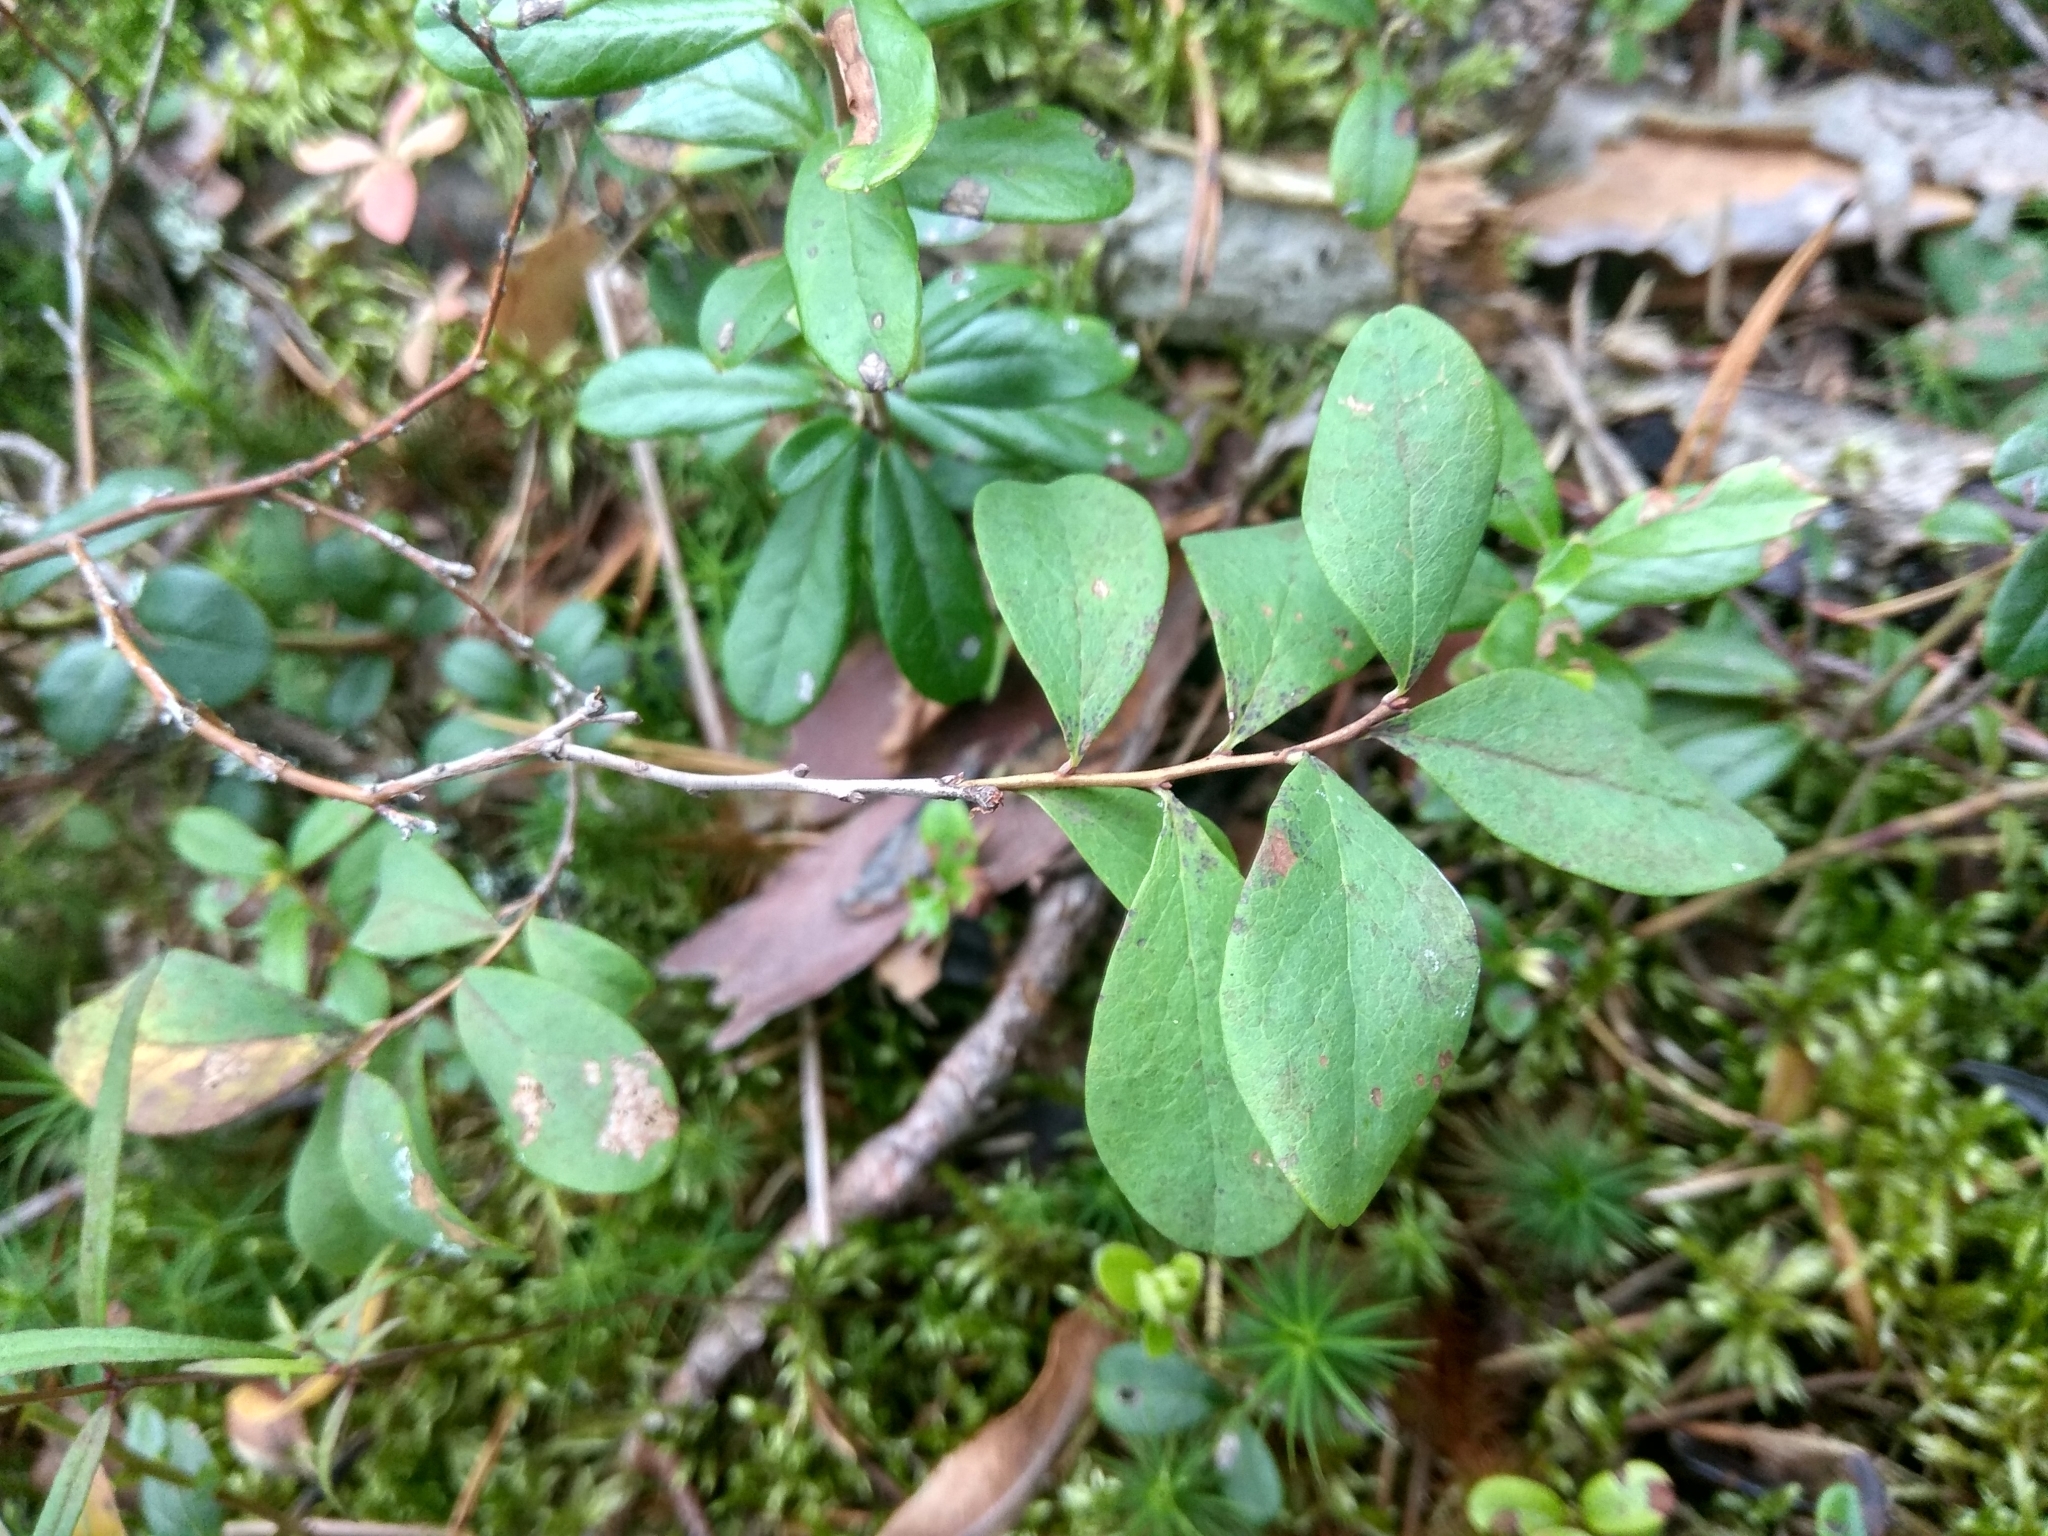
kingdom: Plantae
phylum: Tracheophyta
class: Magnoliopsida
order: Ericales
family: Ericaceae
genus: Vaccinium
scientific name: Vaccinium uliginosum
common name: Bog bilberry
